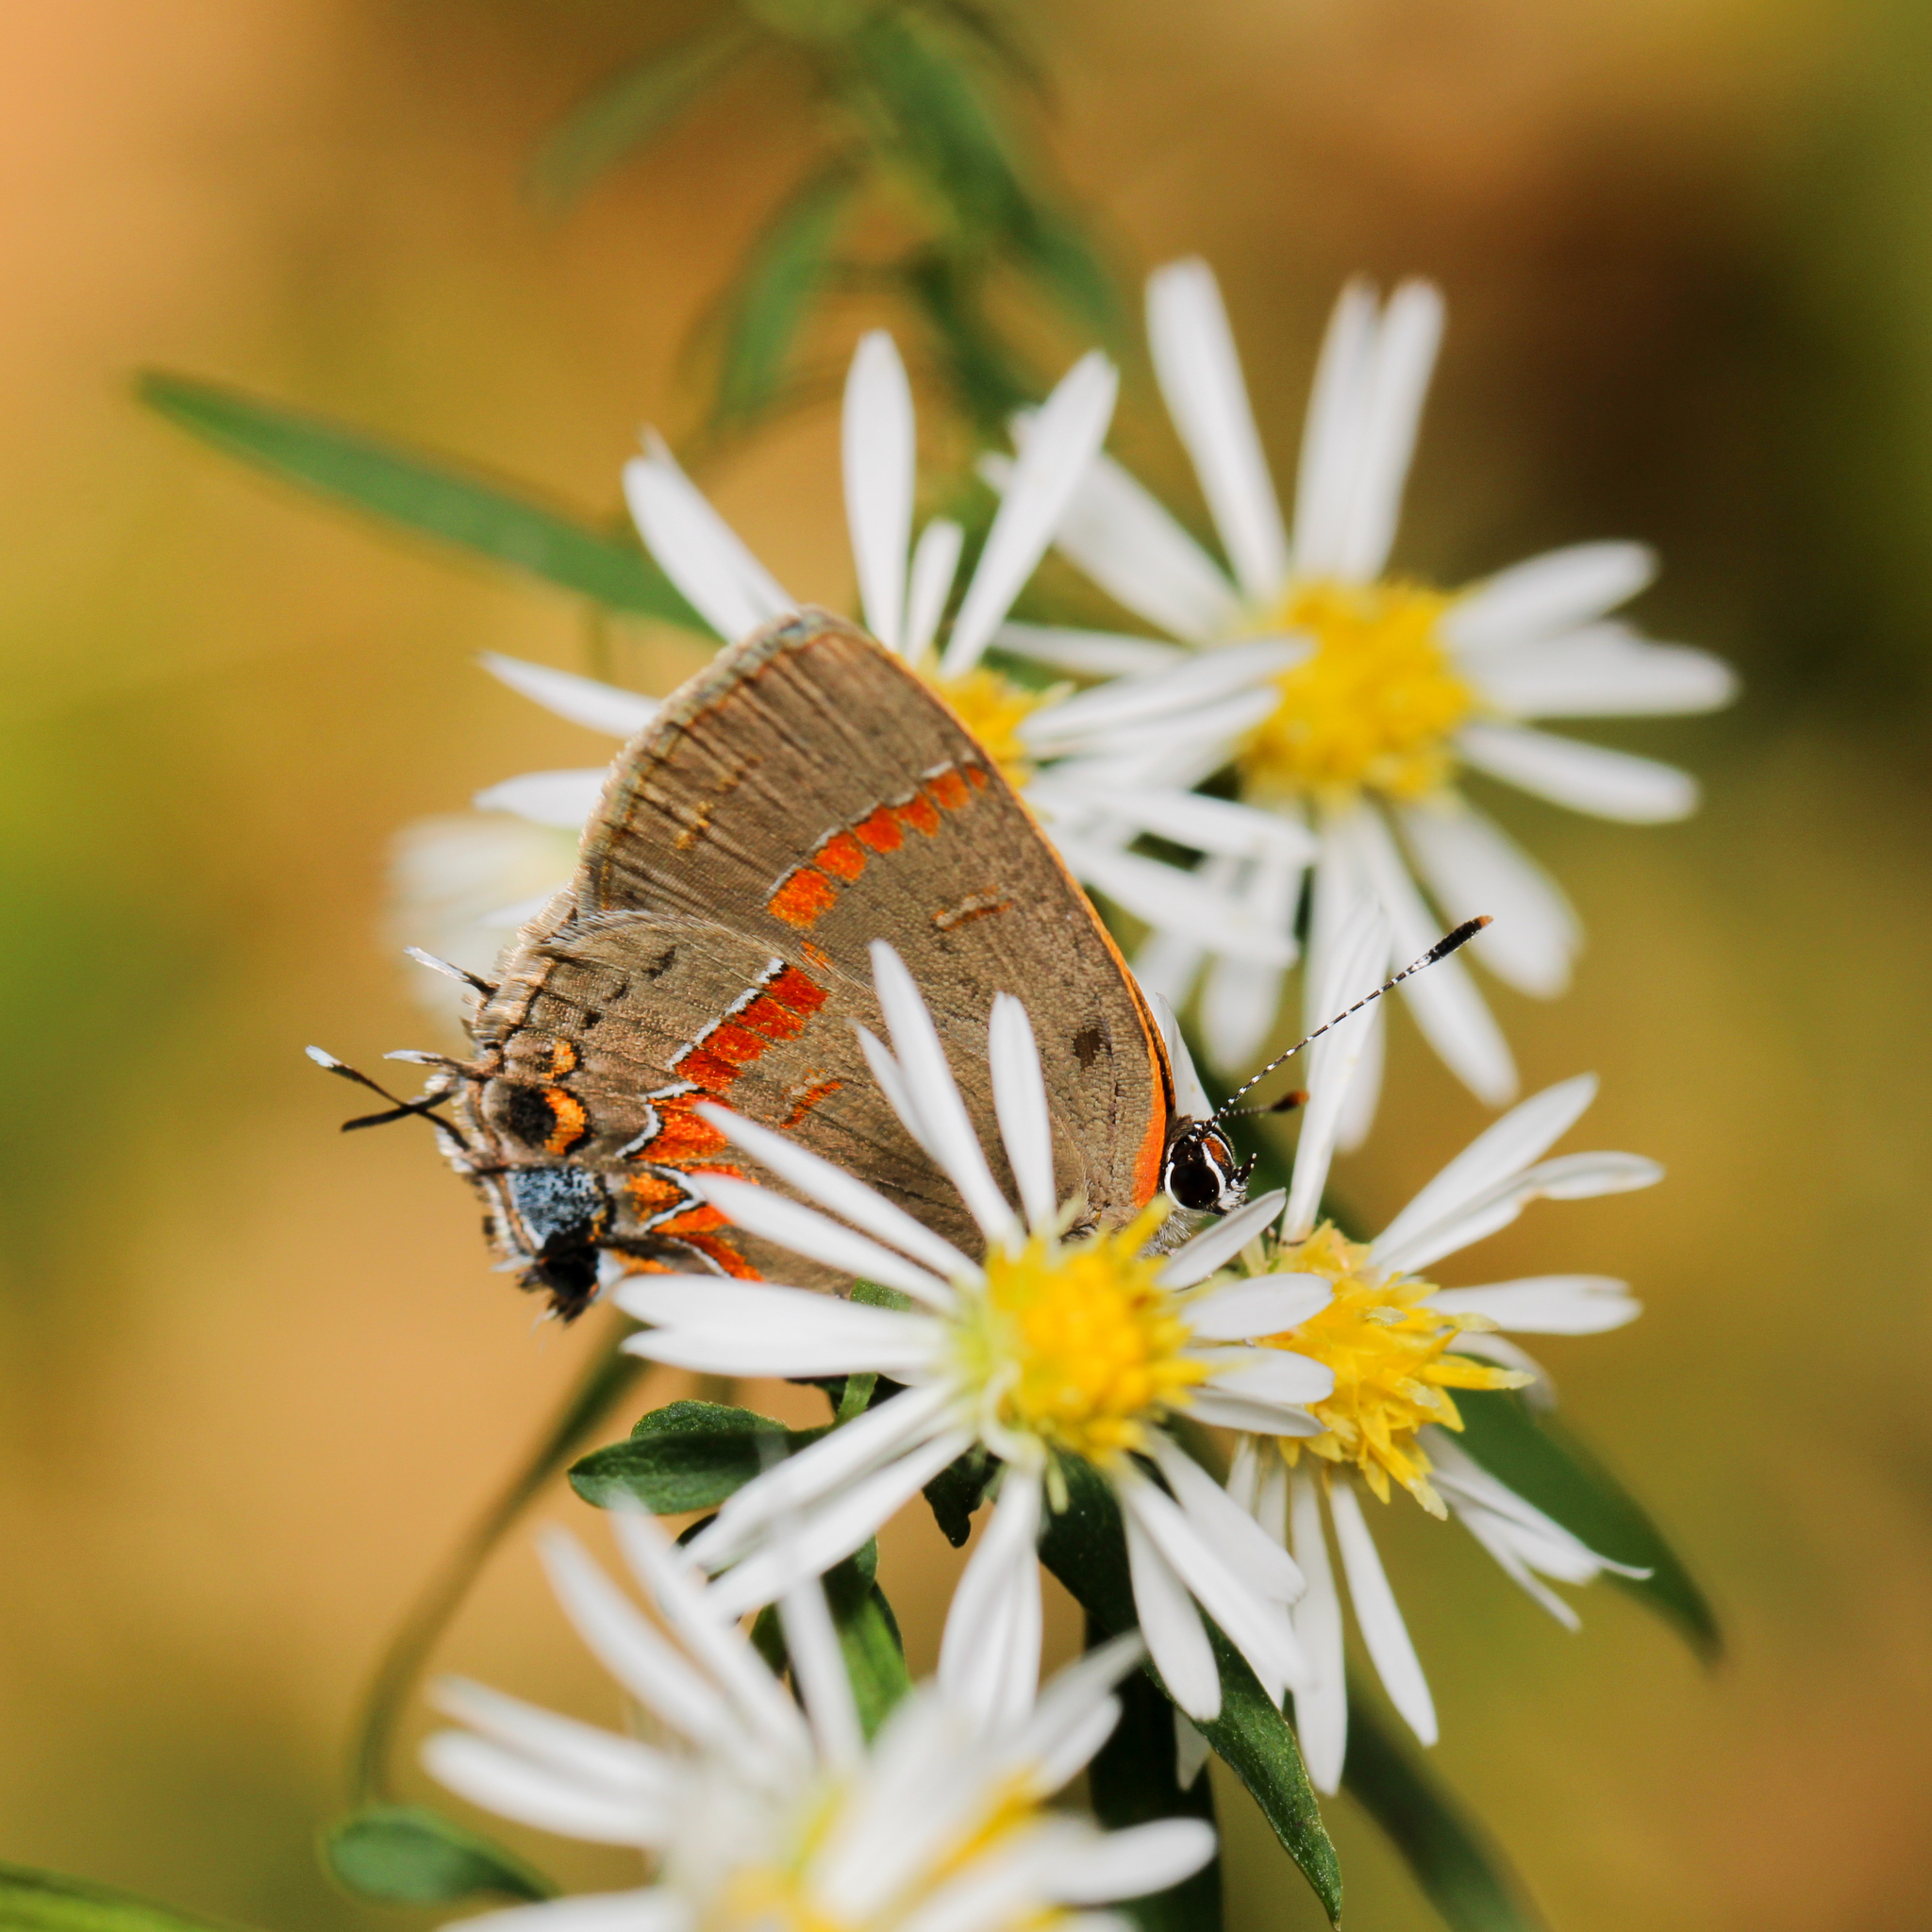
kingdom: Animalia
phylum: Arthropoda
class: Insecta
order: Lepidoptera
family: Lycaenidae
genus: Calycopis
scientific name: Calycopis cecrops
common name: Red-banded hairstreak
